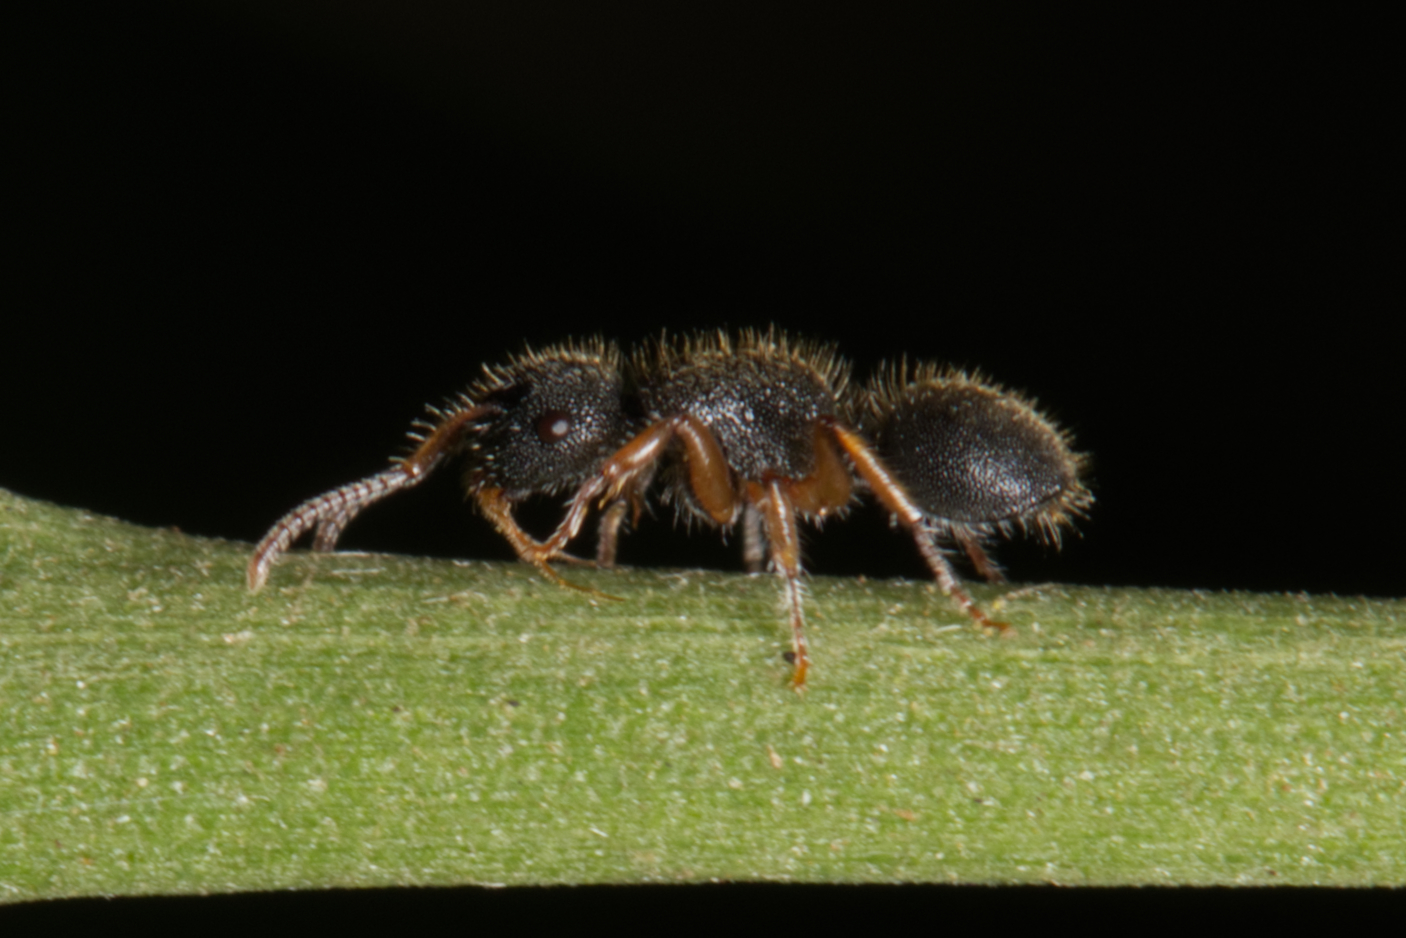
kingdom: Animalia
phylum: Arthropoda
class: Insecta
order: Hymenoptera
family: Formicidae
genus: Echinopla
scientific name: Echinopla turneri
